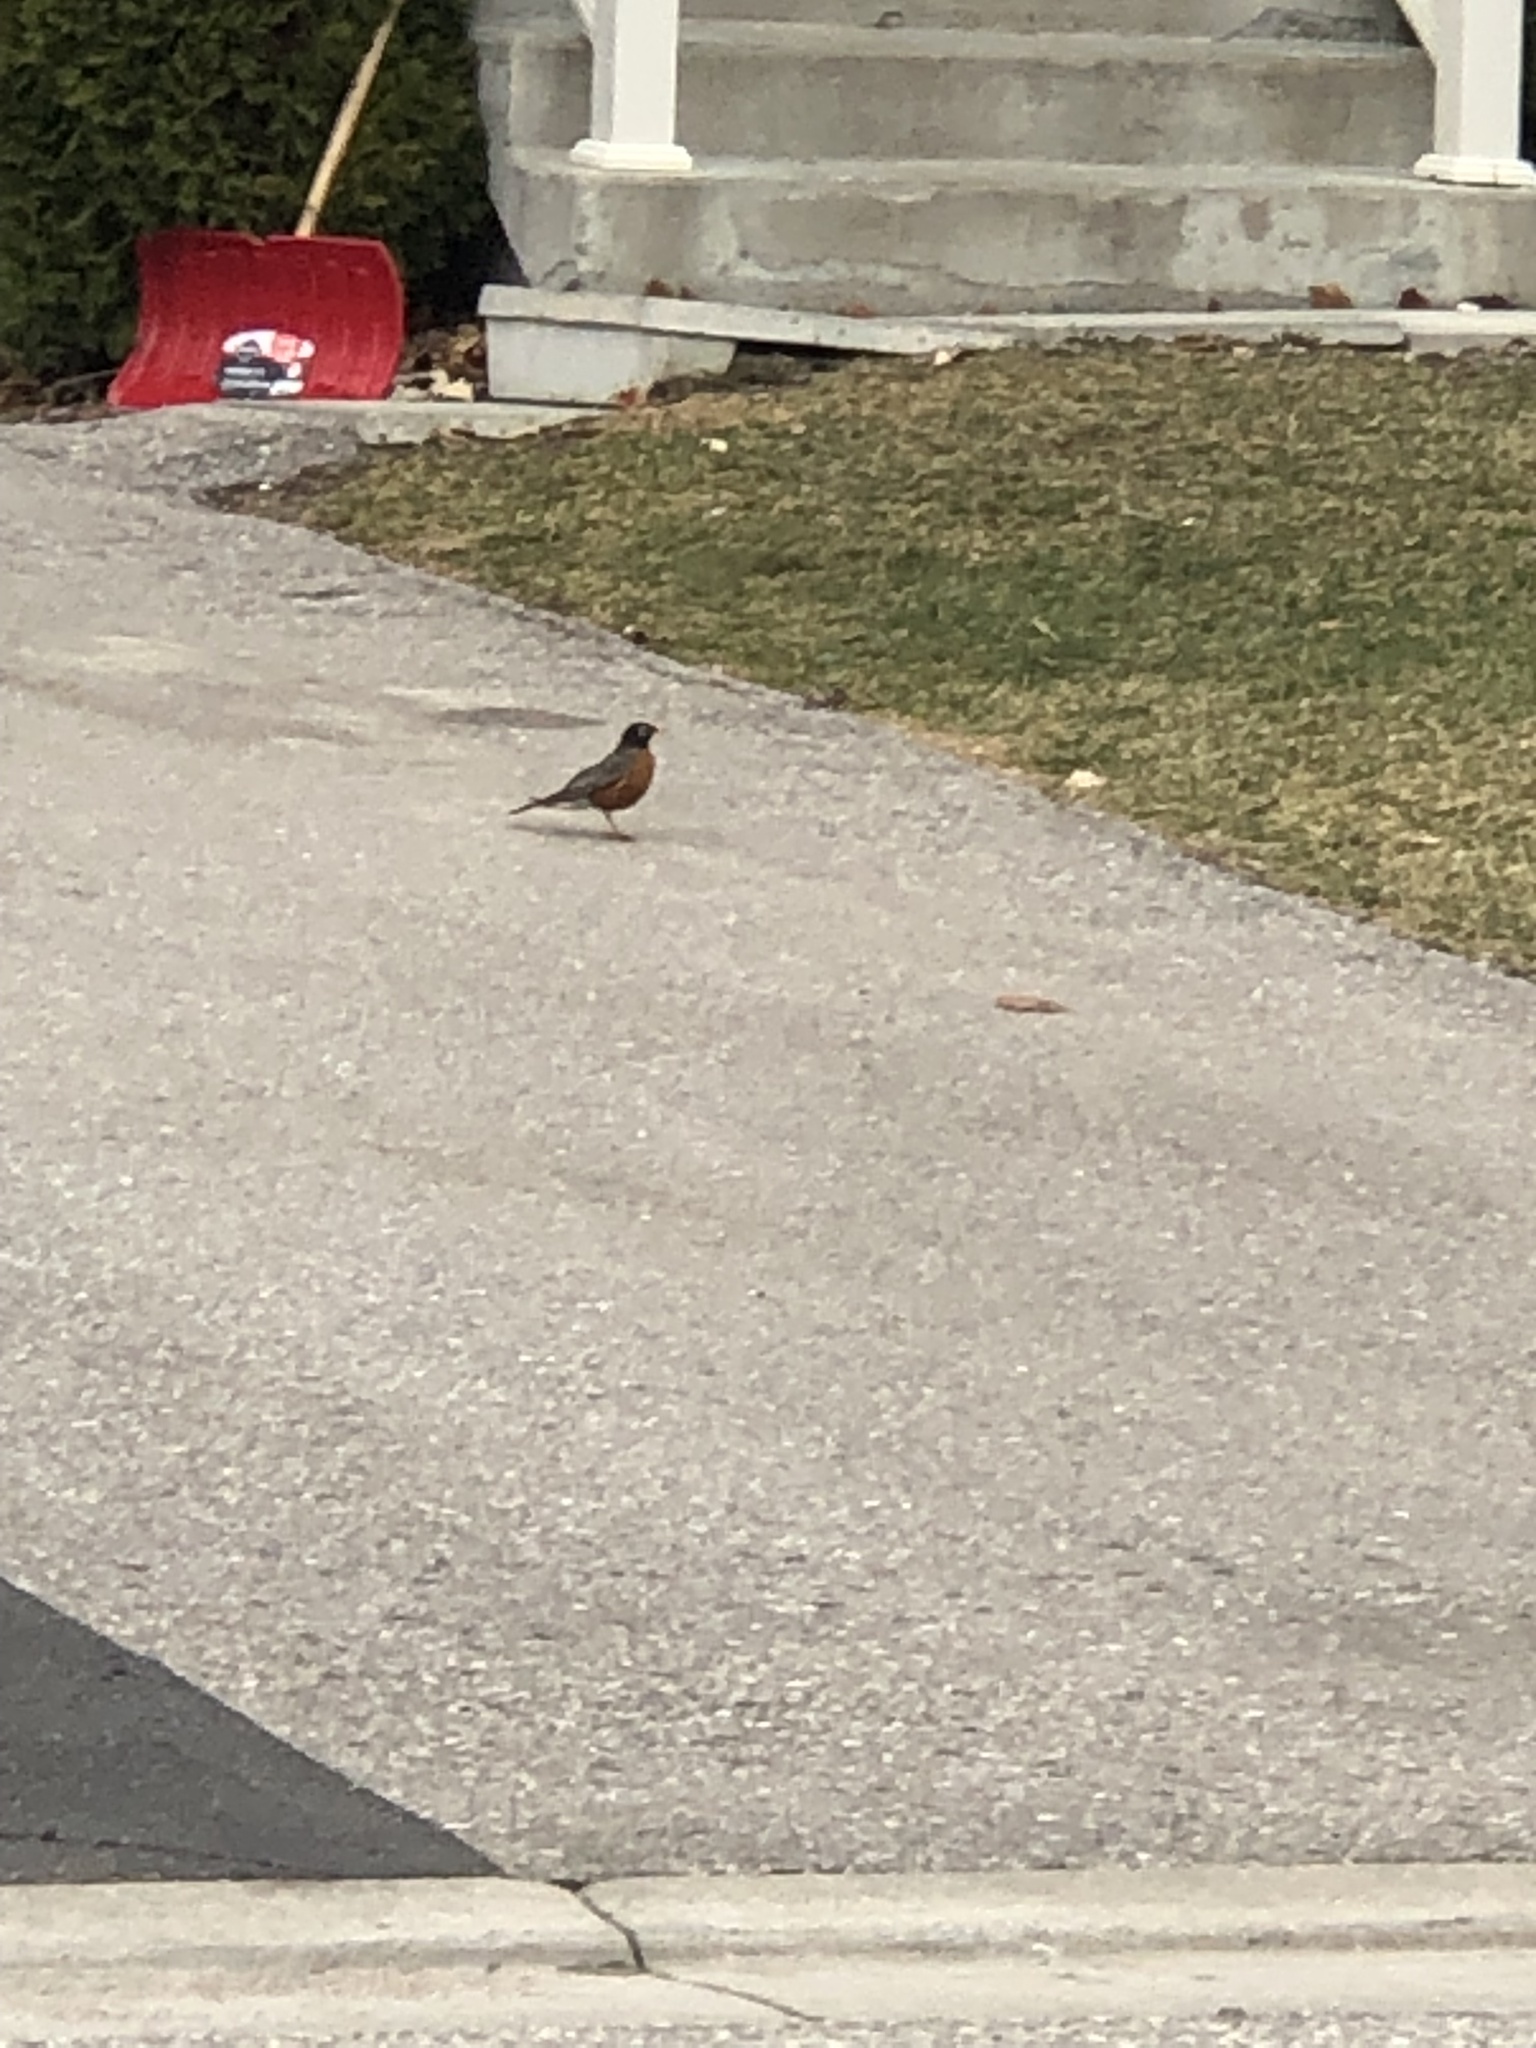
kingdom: Animalia
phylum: Chordata
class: Aves
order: Passeriformes
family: Turdidae
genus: Turdus
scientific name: Turdus migratorius
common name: American robin
